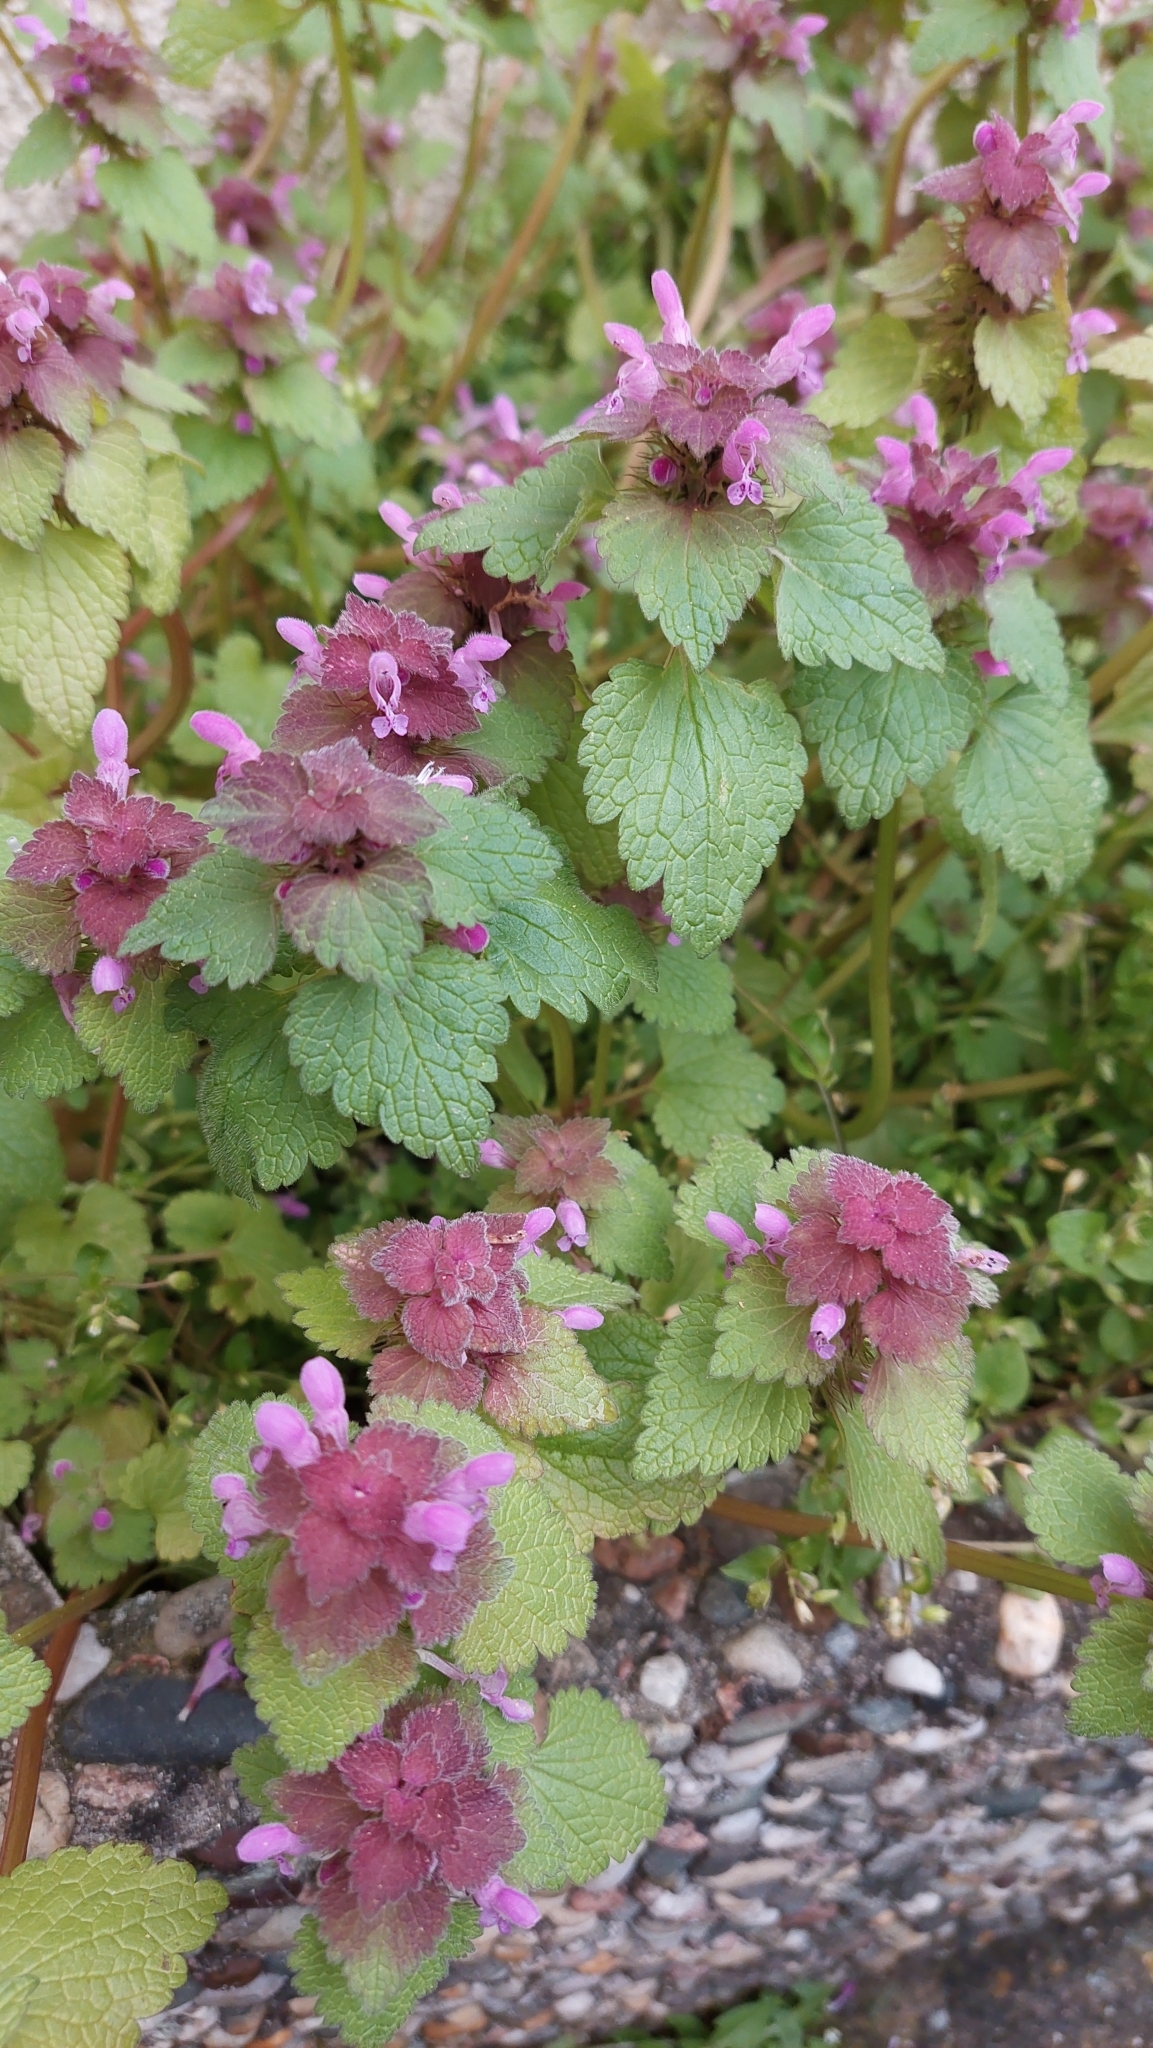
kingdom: Plantae
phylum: Tracheophyta
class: Magnoliopsida
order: Lamiales
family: Lamiaceae
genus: Lamium
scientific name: Lamium purpureum
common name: Red dead-nettle
